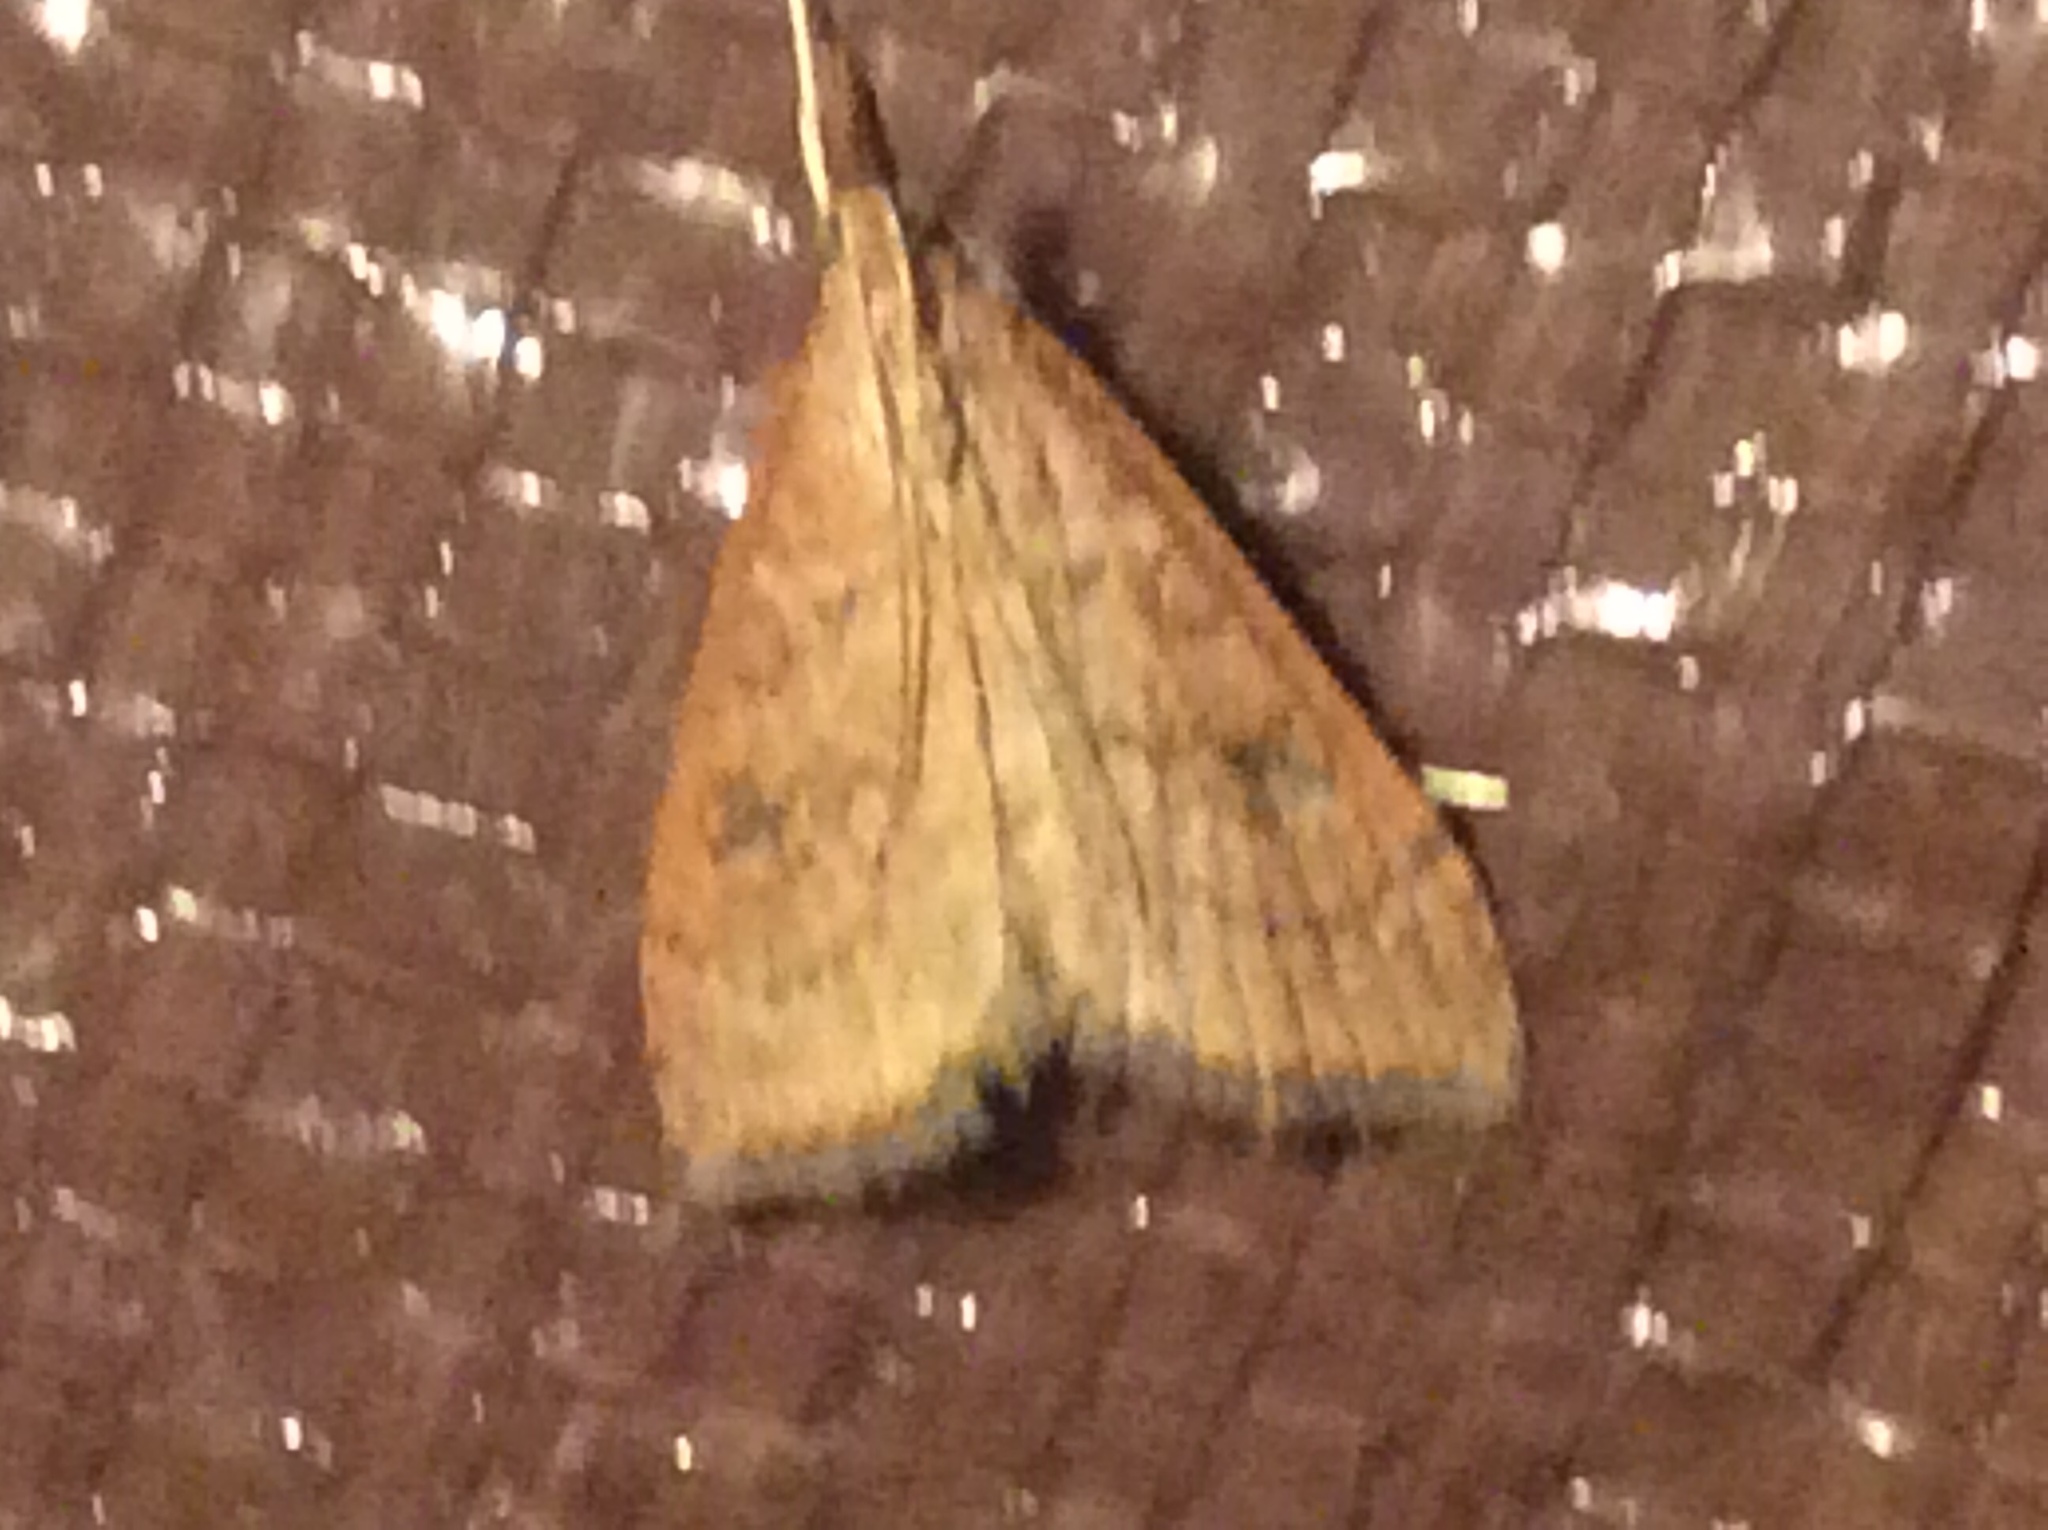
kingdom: Animalia
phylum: Arthropoda
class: Insecta
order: Lepidoptera
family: Crambidae
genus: Udea
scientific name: Udea rubigalis
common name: Celery leaftier moth
